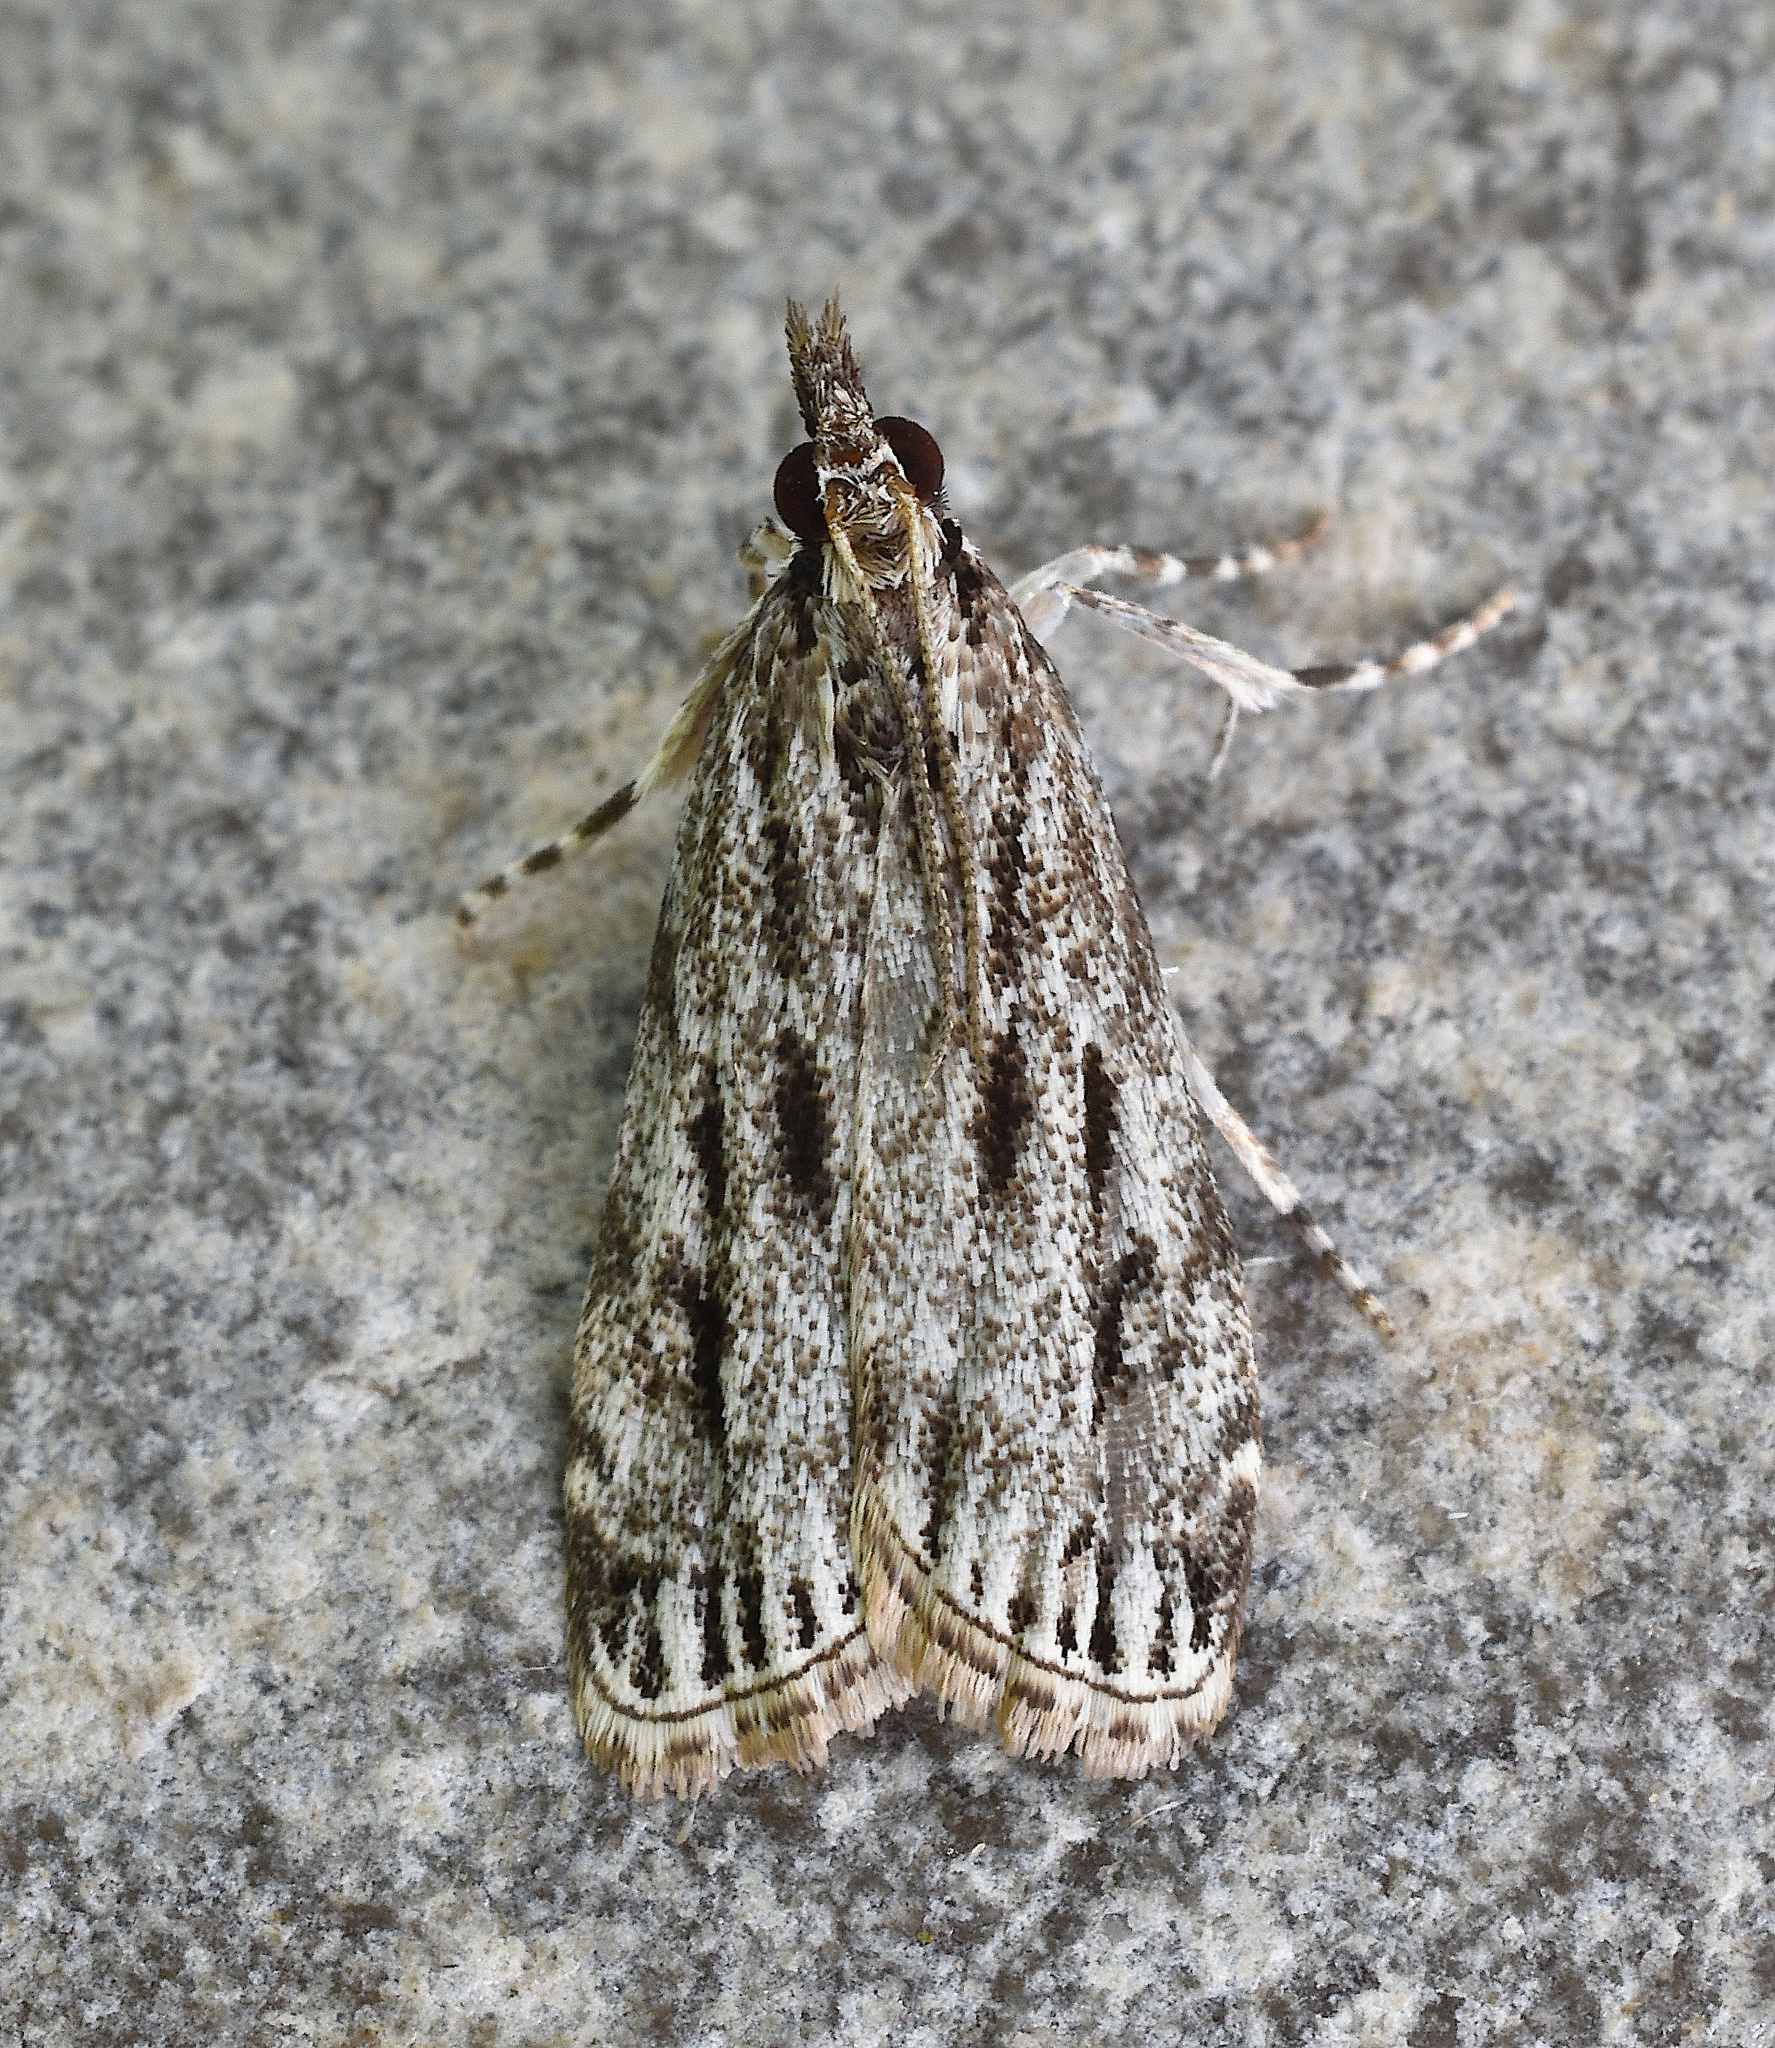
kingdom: Animalia
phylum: Arthropoda
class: Insecta
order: Lepidoptera
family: Crambidae
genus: Eudonia
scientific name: Eudonia strigalis
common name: Striped eudonia moth
